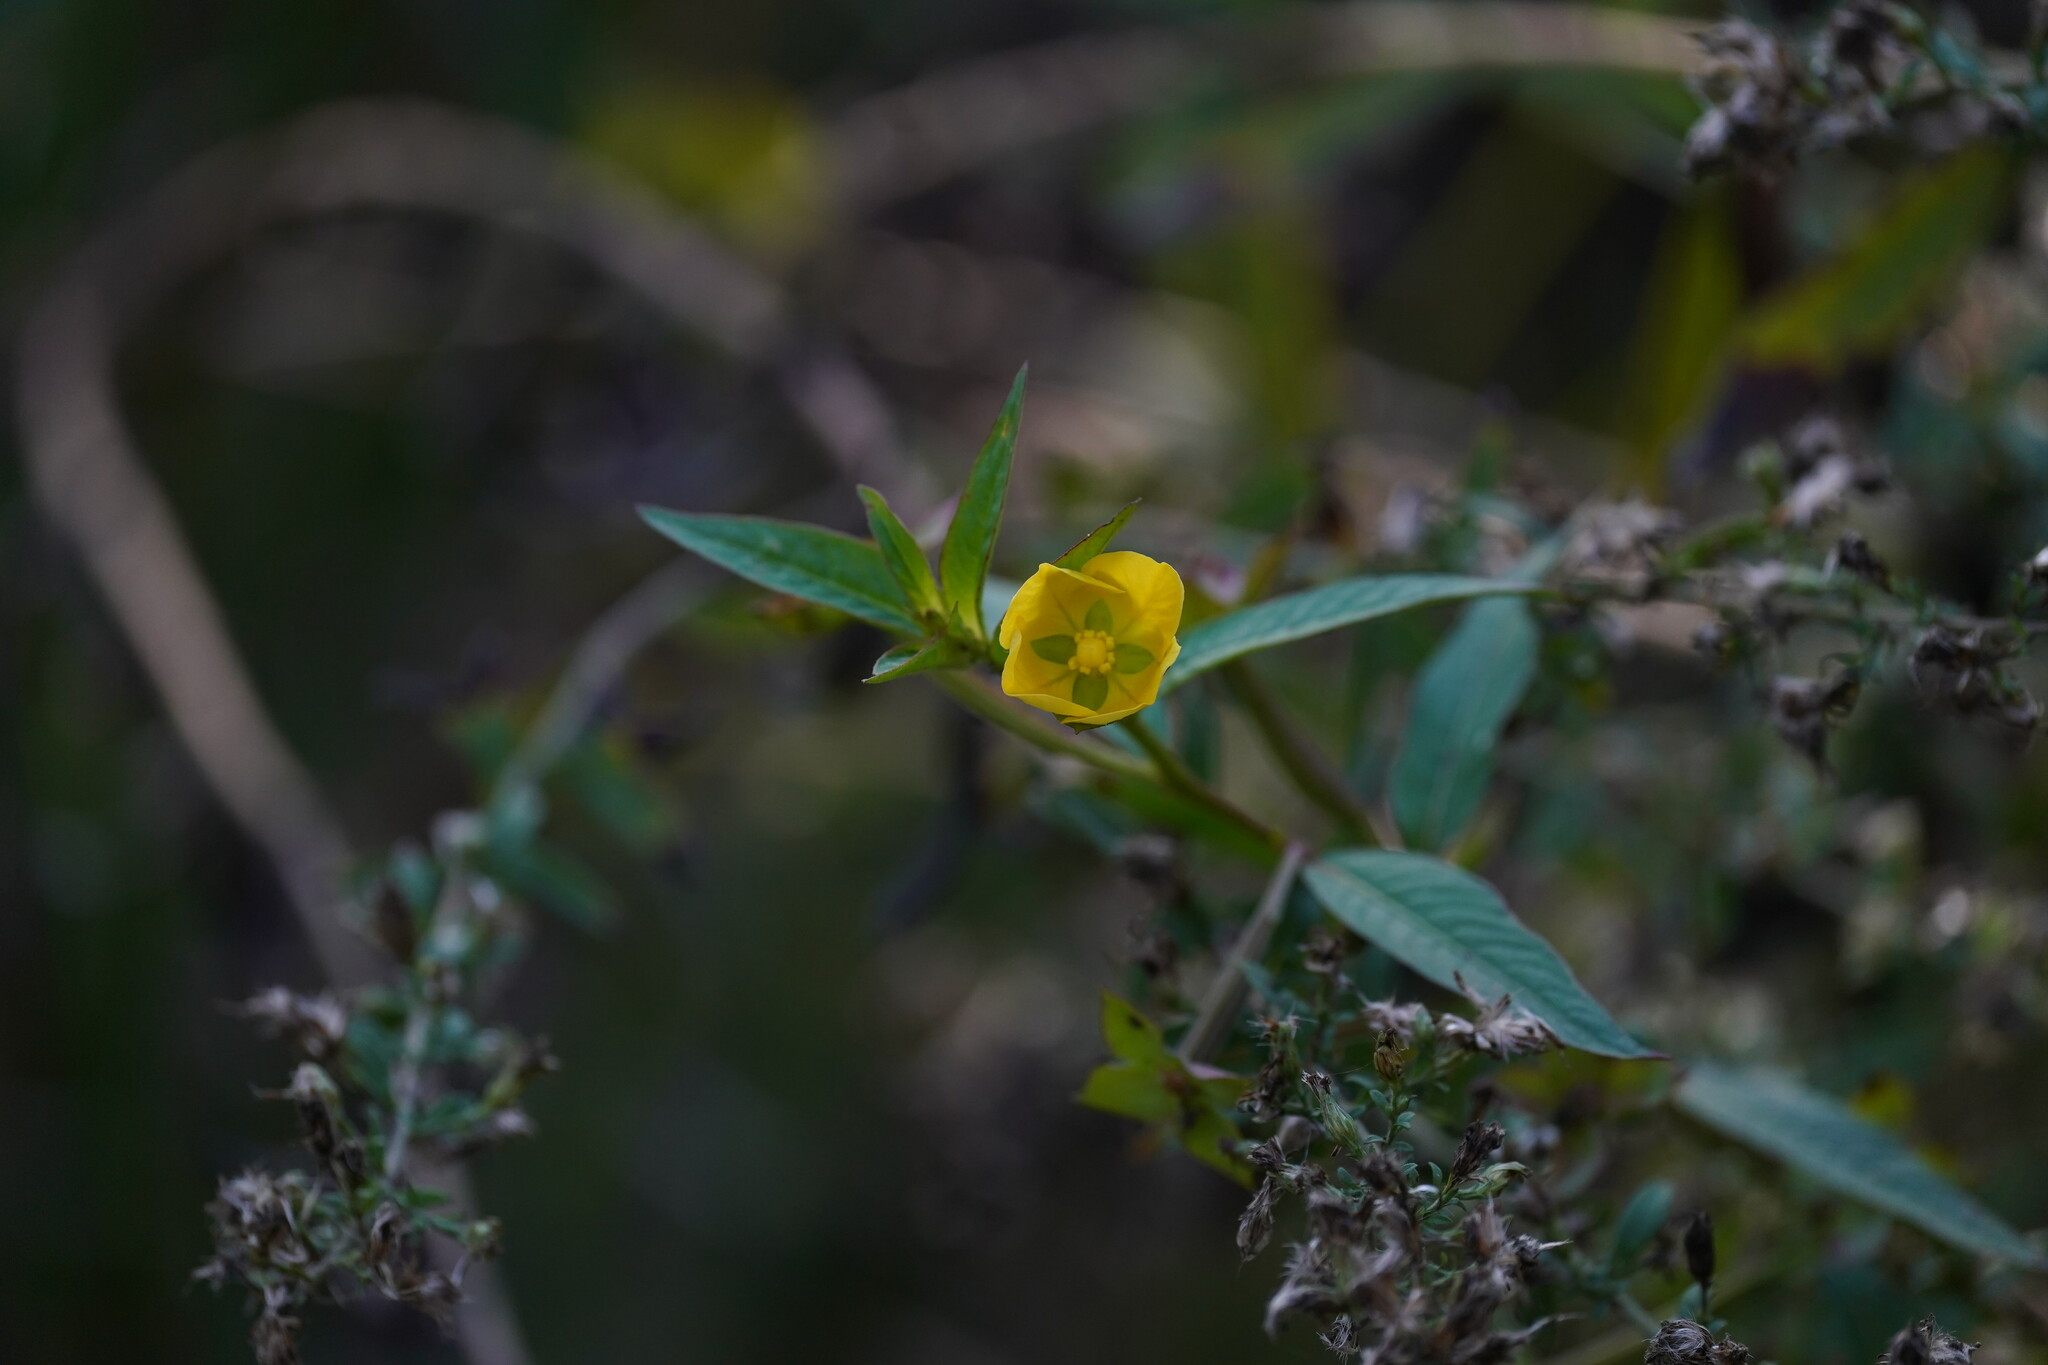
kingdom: Plantae
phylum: Tracheophyta
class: Magnoliopsida
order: Myrtales
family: Onagraceae
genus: Ludwigia
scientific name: Ludwigia decurrens
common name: Winged water-primrose
